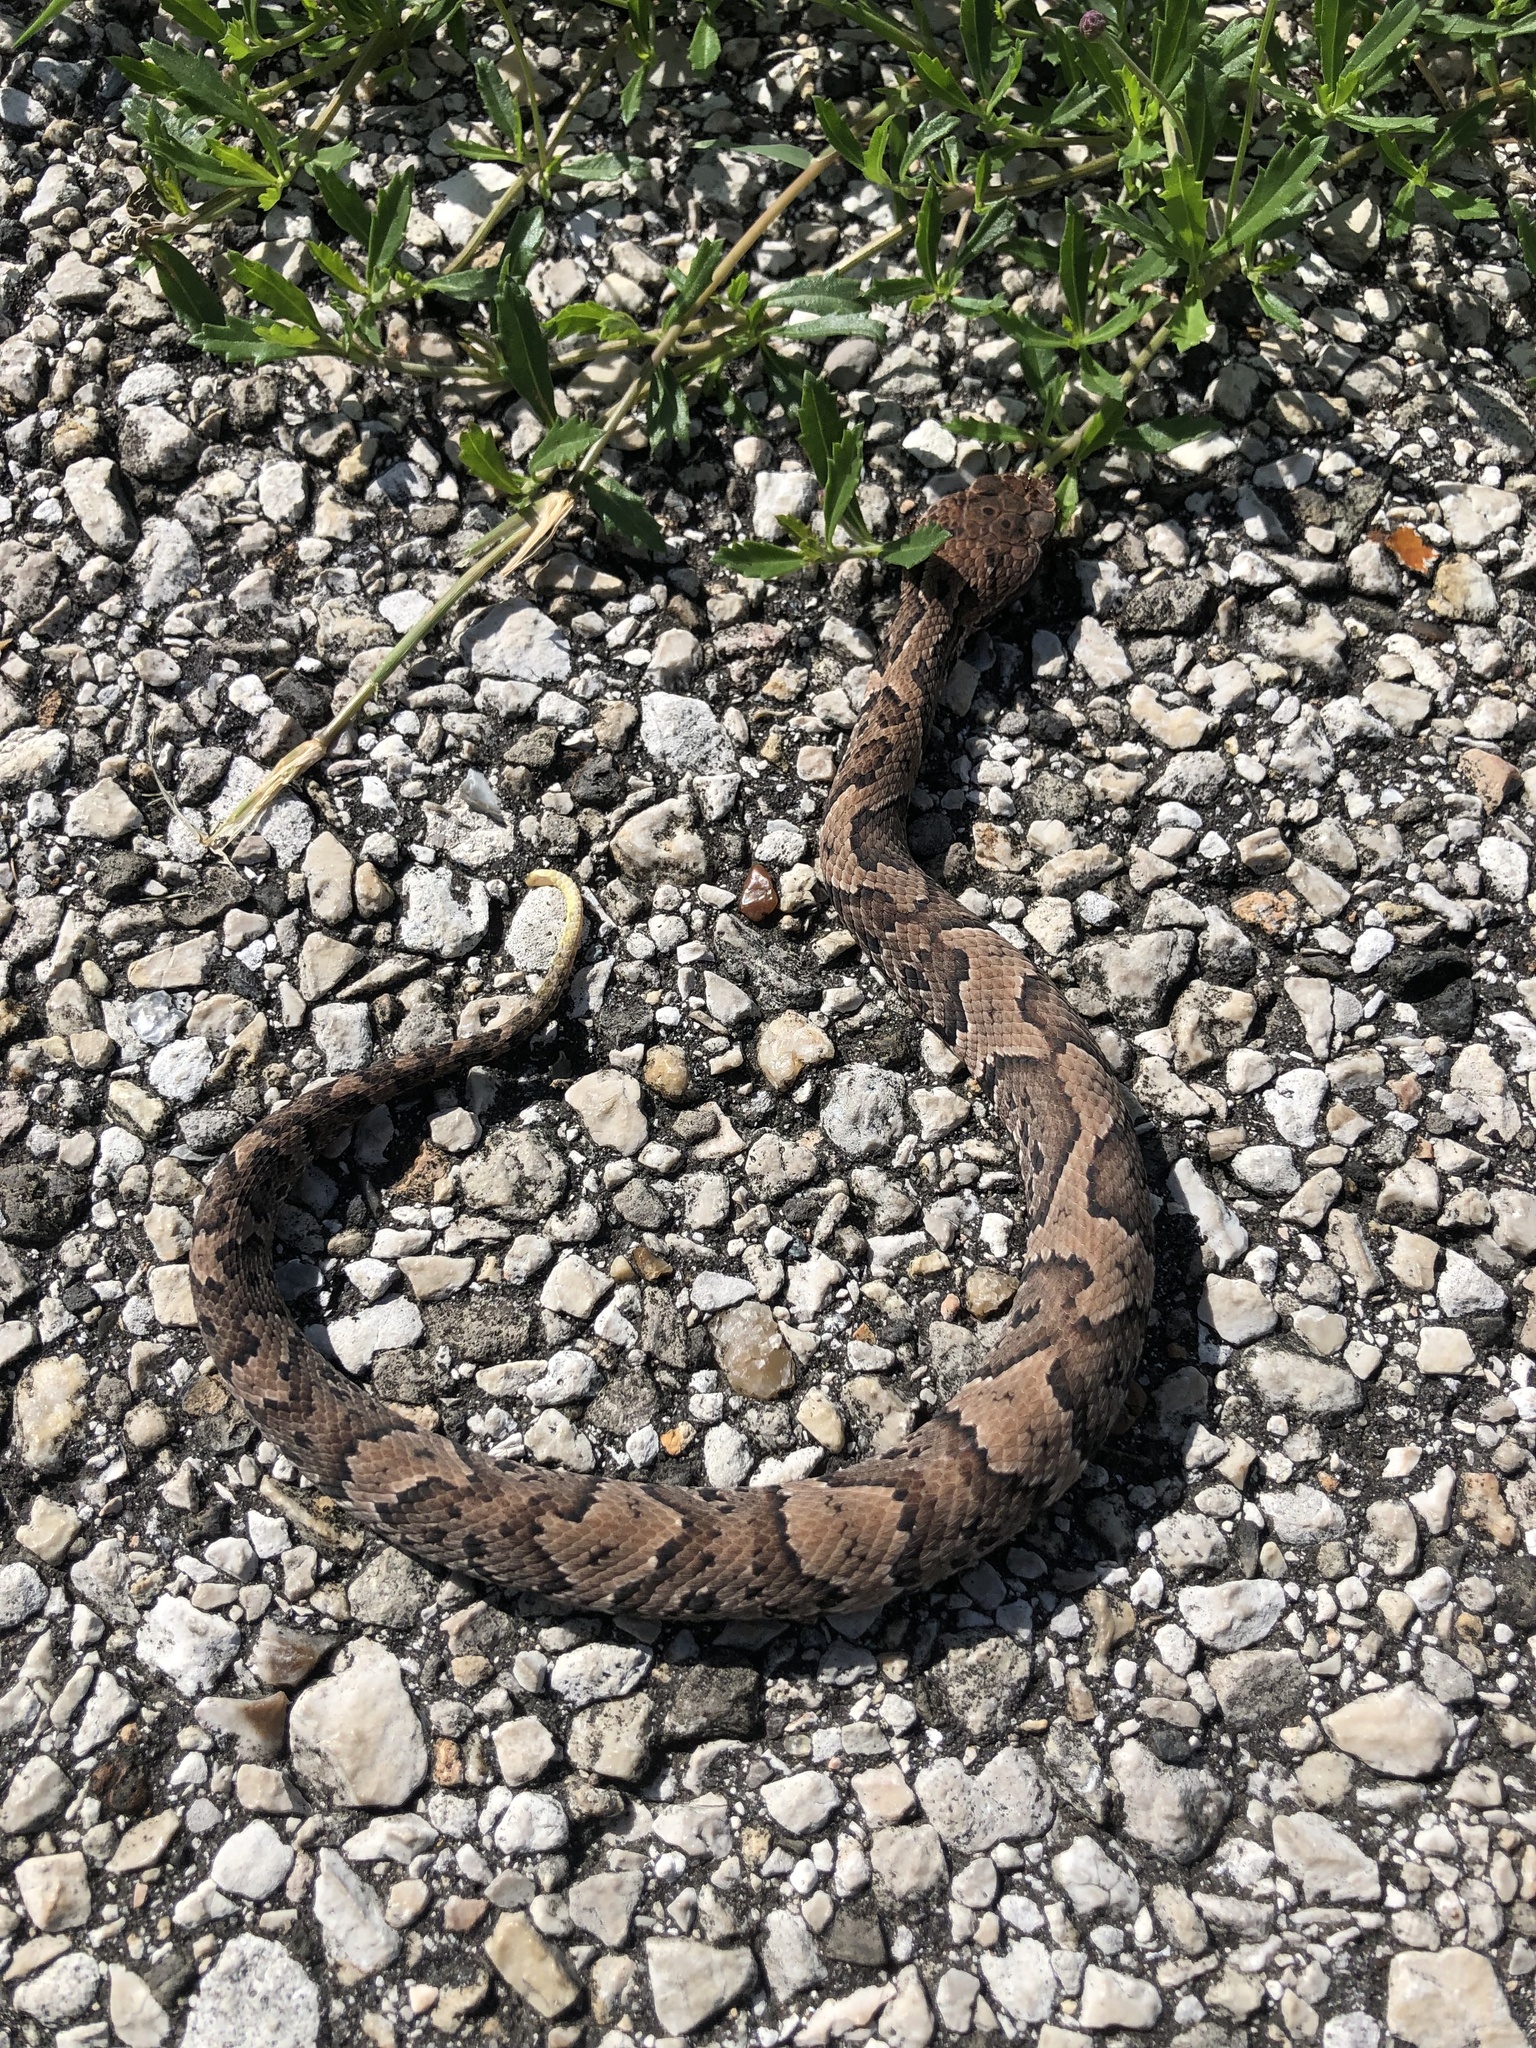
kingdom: Animalia
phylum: Chordata
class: Squamata
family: Viperidae
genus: Agkistrodon
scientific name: Agkistrodon piscivorus
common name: Cottonmouth
